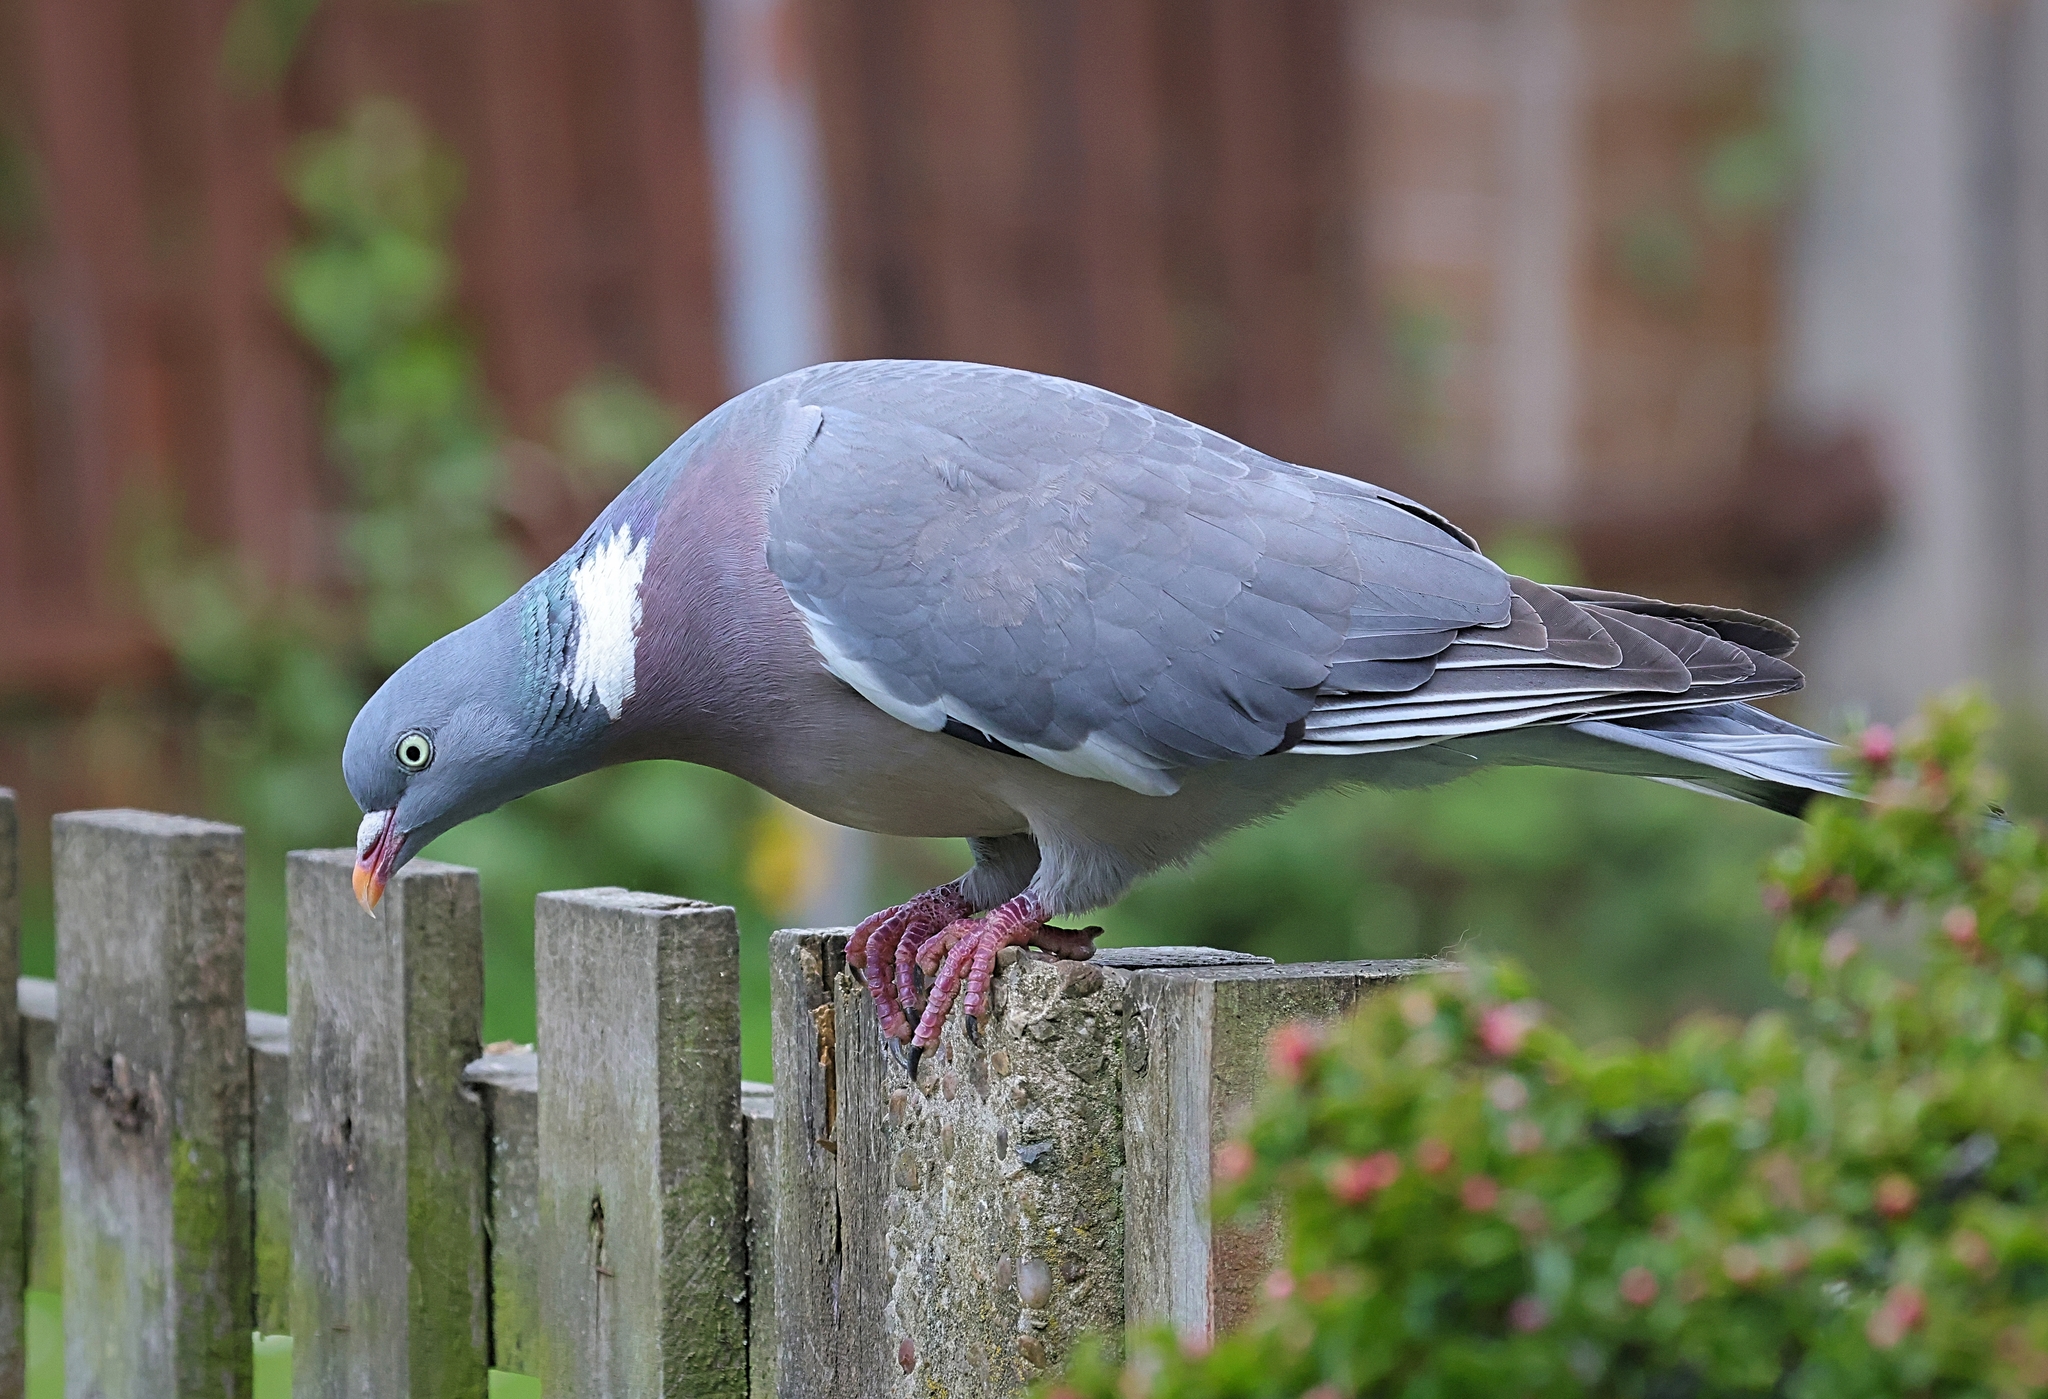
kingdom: Animalia
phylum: Chordata
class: Aves
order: Columbiformes
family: Columbidae
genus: Columba
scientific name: Columba palumbus
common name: Common wood pigeon
